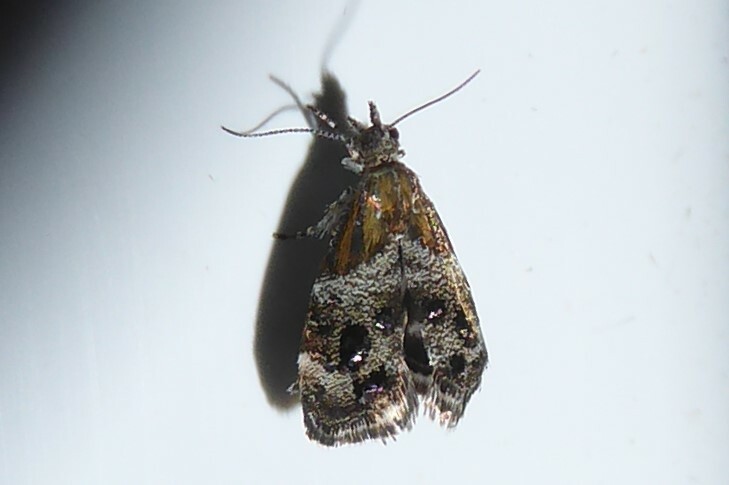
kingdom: Animalia
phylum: Arthropoda
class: Insecta
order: Lepidoptera
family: Choreutidae
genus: Tebenna
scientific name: Tebenna micalis
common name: Vagrant twitcher
